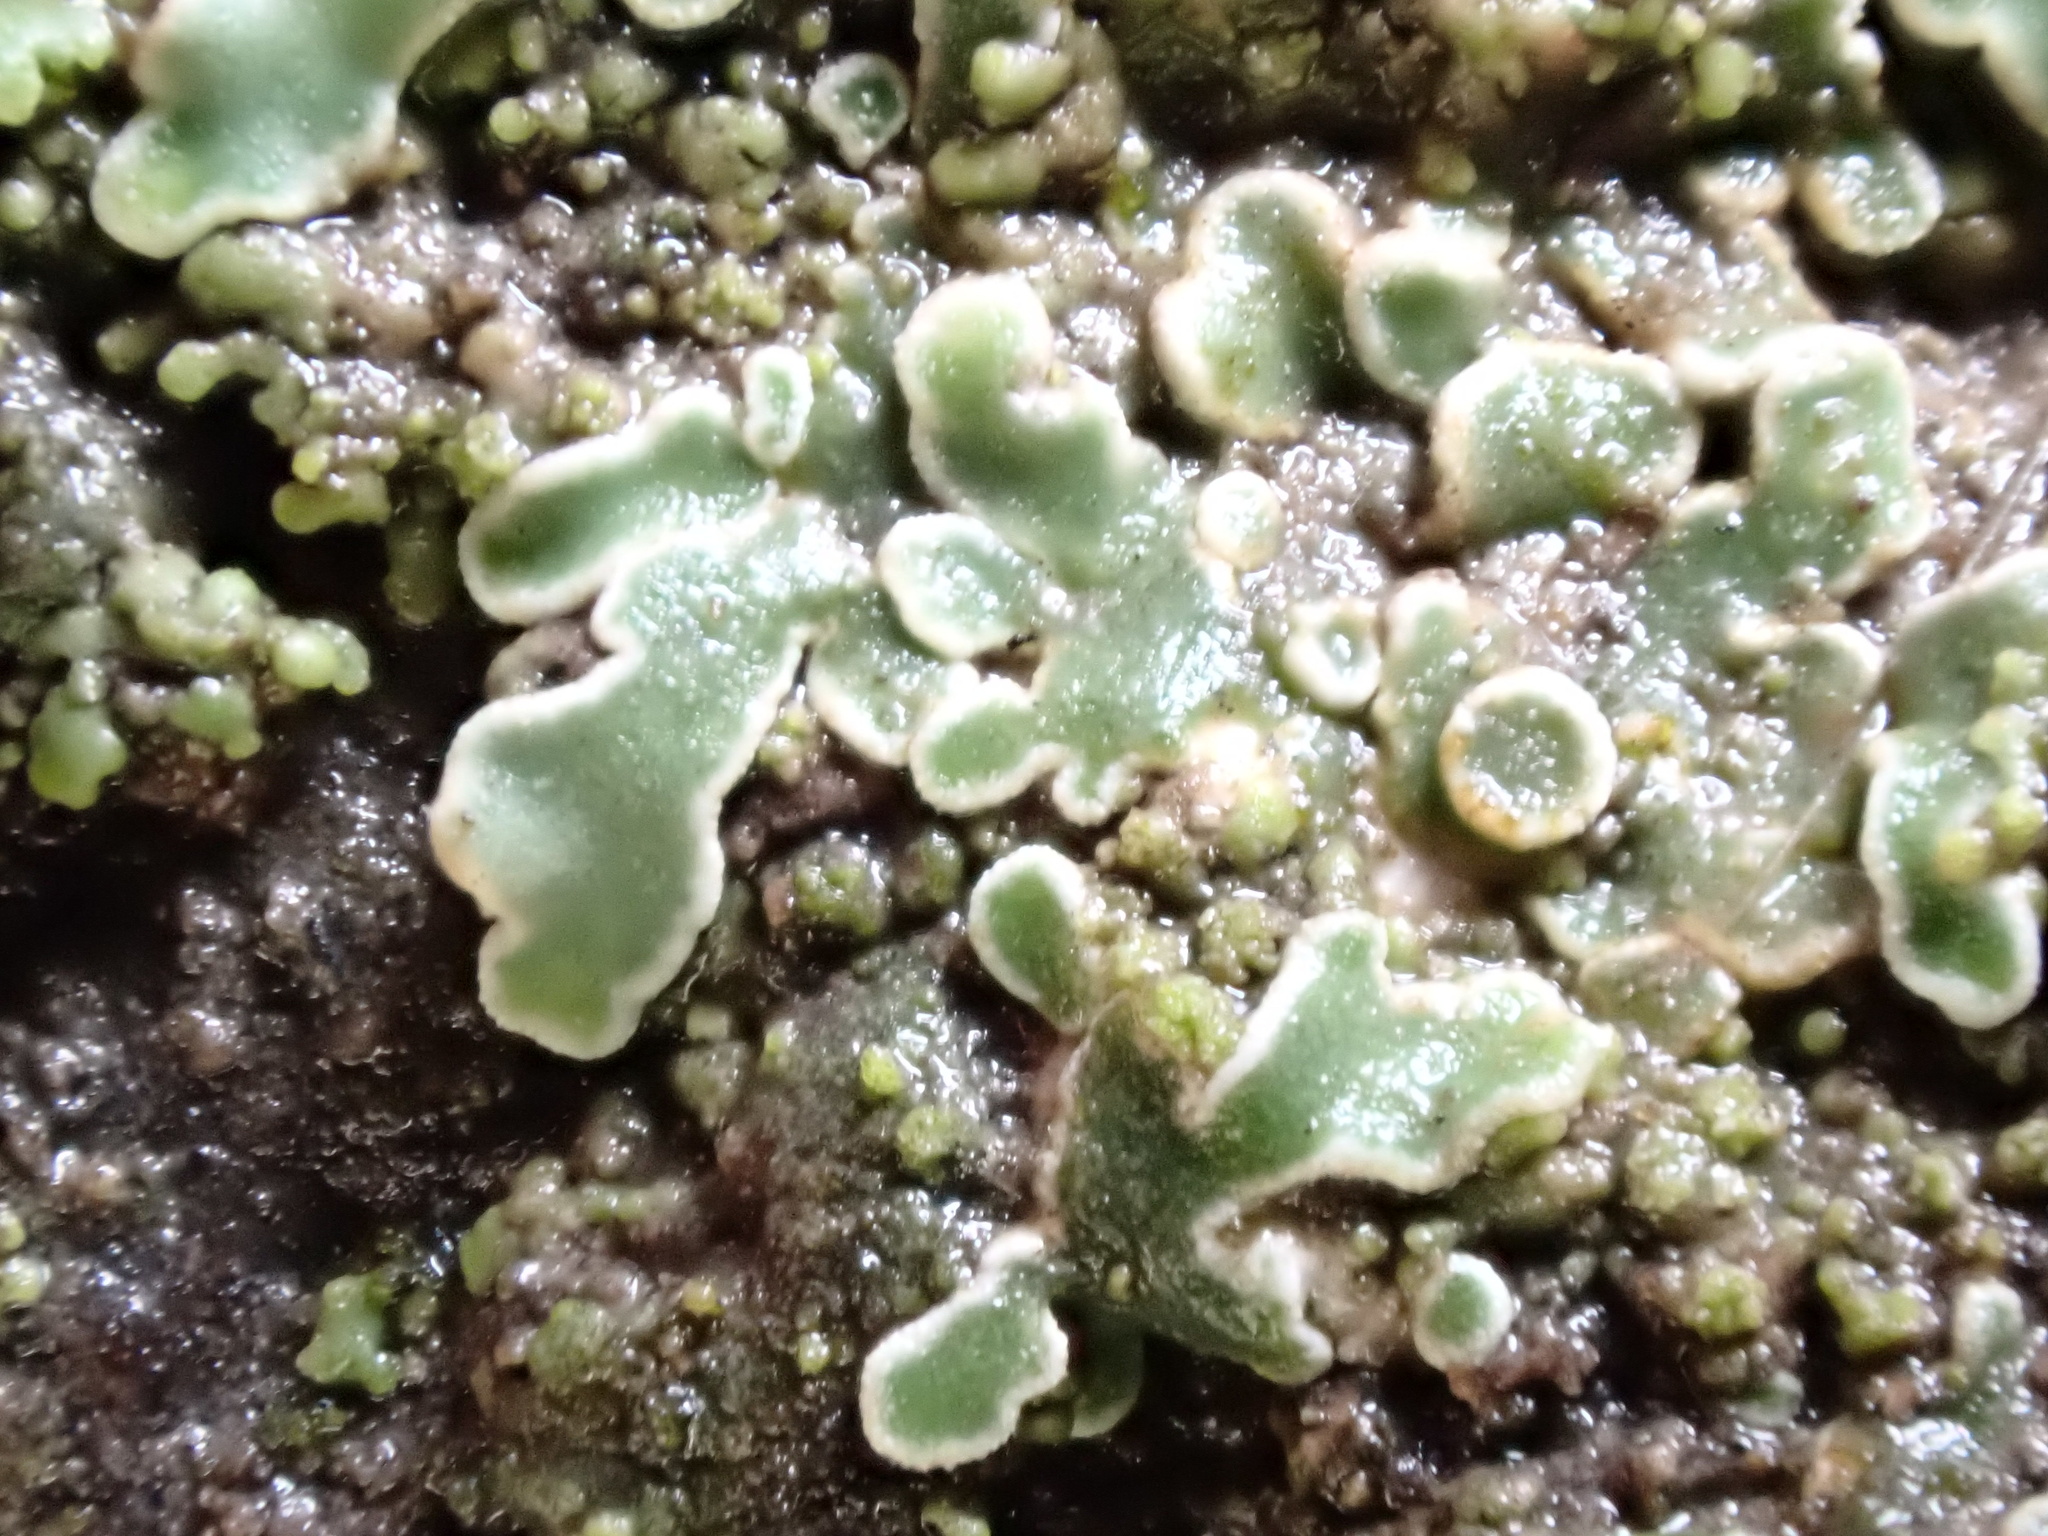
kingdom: Fungi
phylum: Ascomycota
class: Lecanoromycetes
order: Lecanorales
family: Lecanoraceae
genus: Protoparmeliopsis
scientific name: Protoparmeliopsis muralis
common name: Stonewall rim lichen
